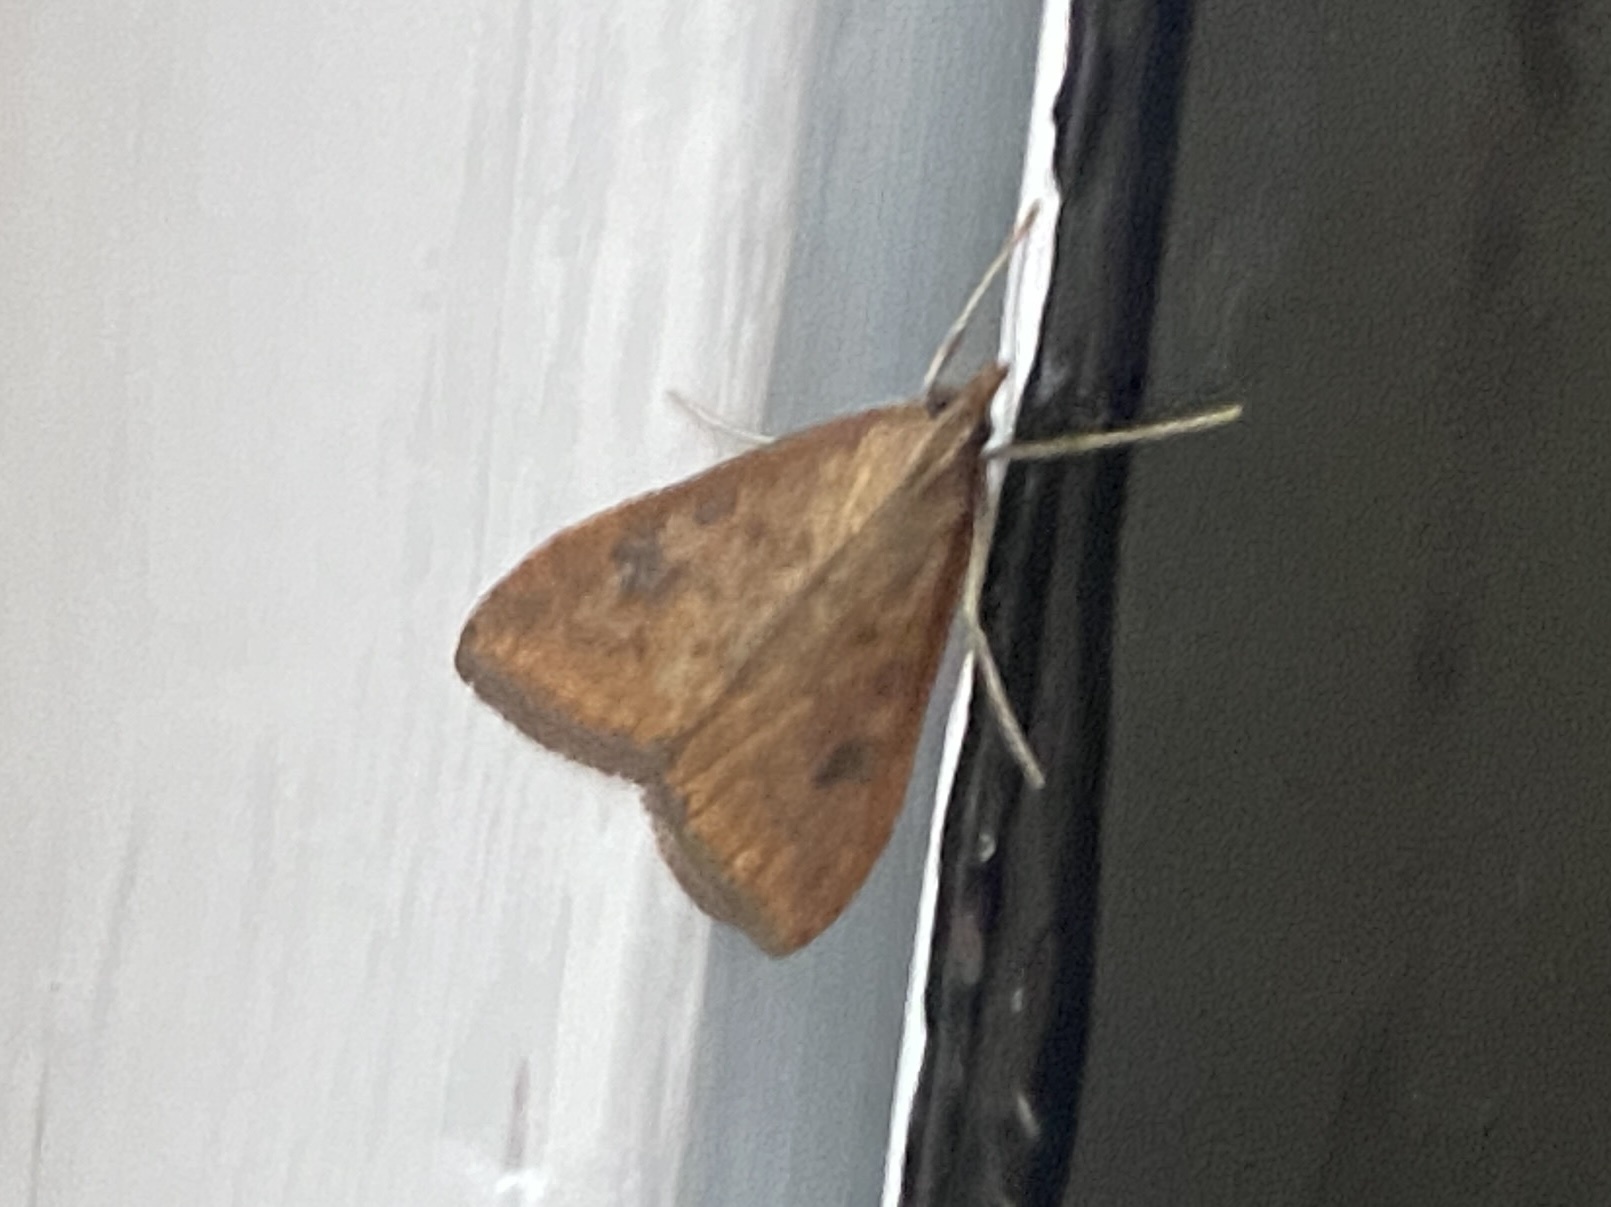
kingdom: Animalia
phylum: Arthropoda
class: Insecta
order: Lepidoptera
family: Crambidae
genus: Udea
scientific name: Udea ferrugalis
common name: Rusty dot
